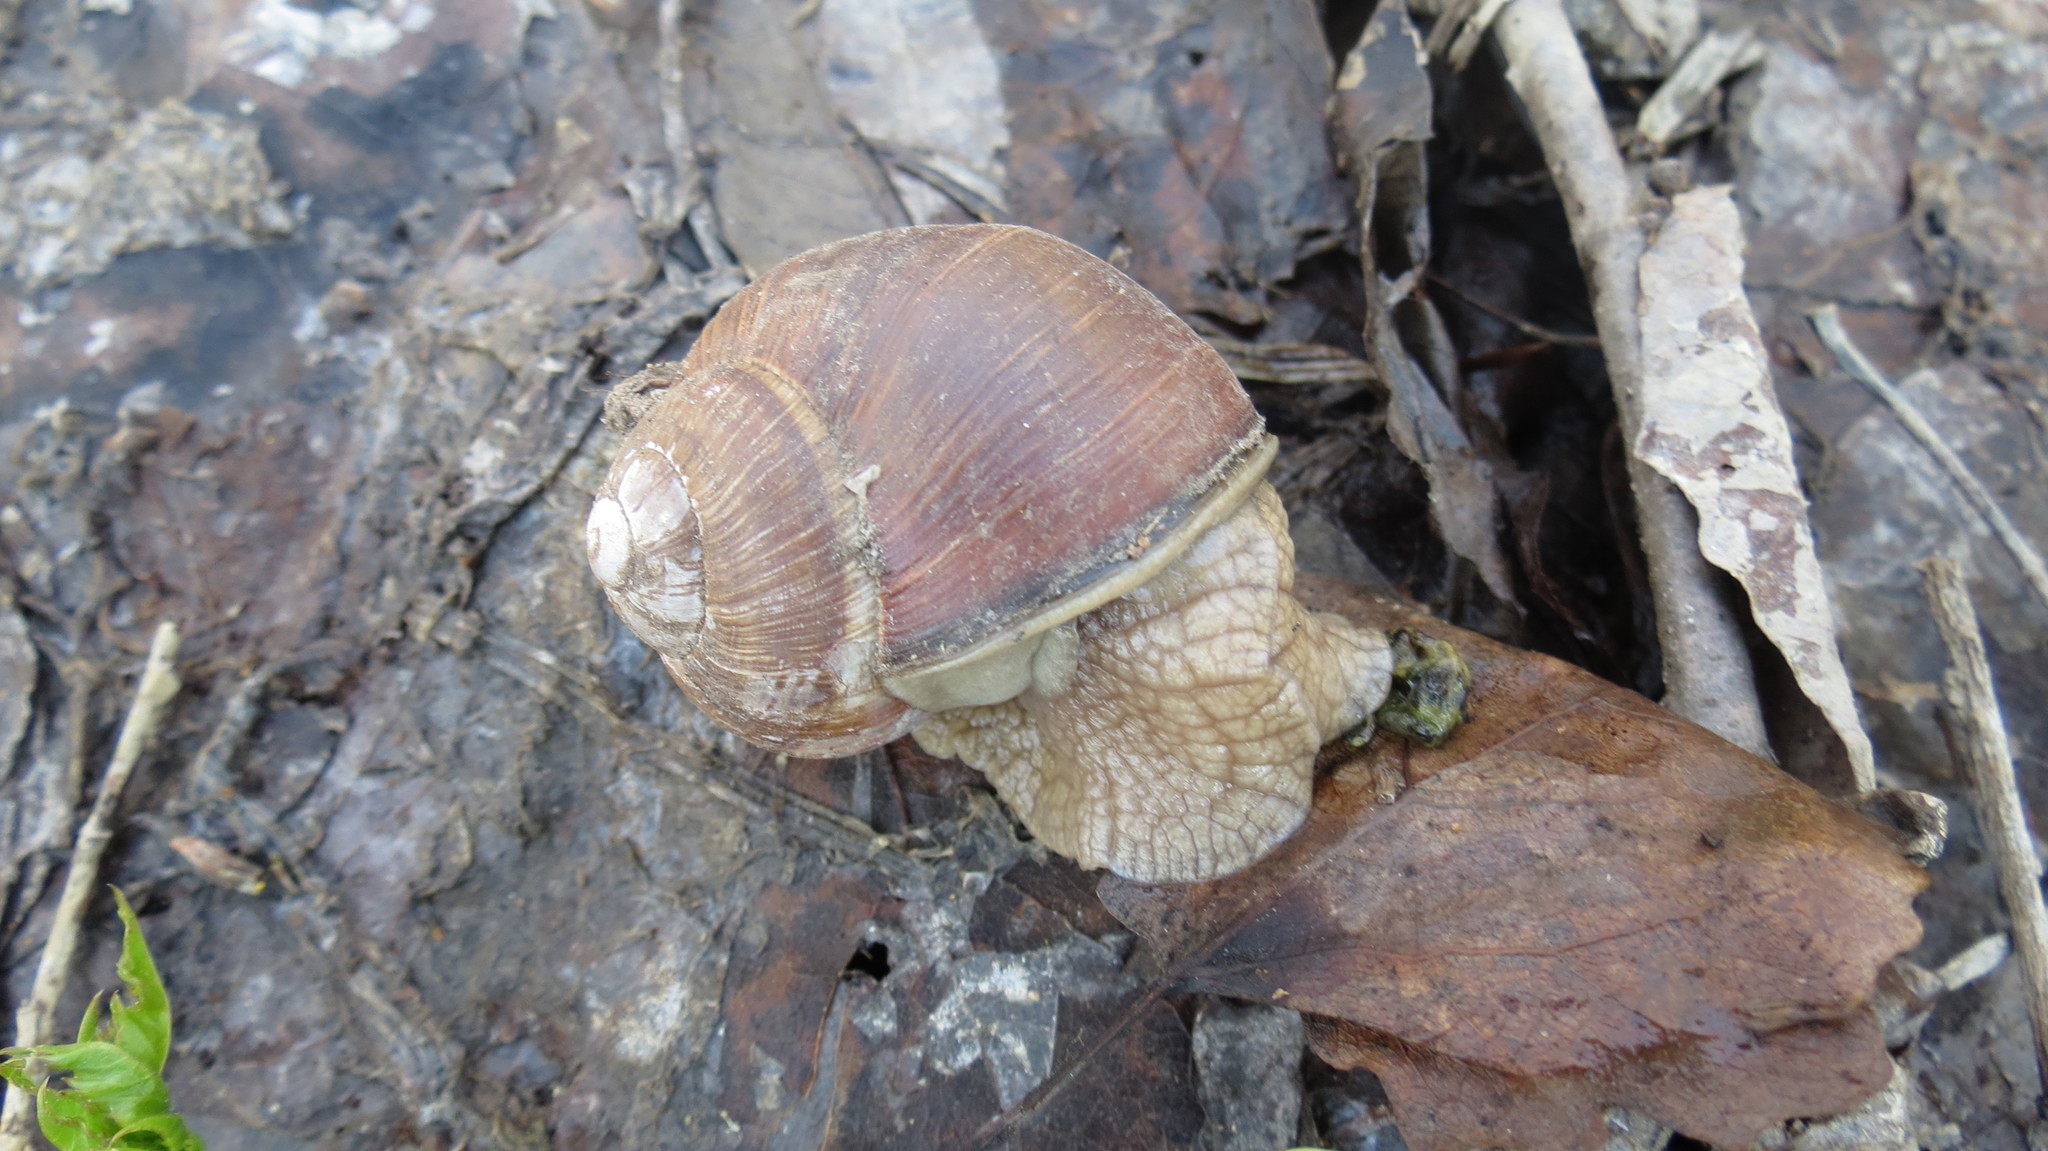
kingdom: Animalia
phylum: Mollusca
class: Gastropoda
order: Stylommatophora
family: Helicidae
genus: Helix
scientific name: Helix pomatia
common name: Roman snail
